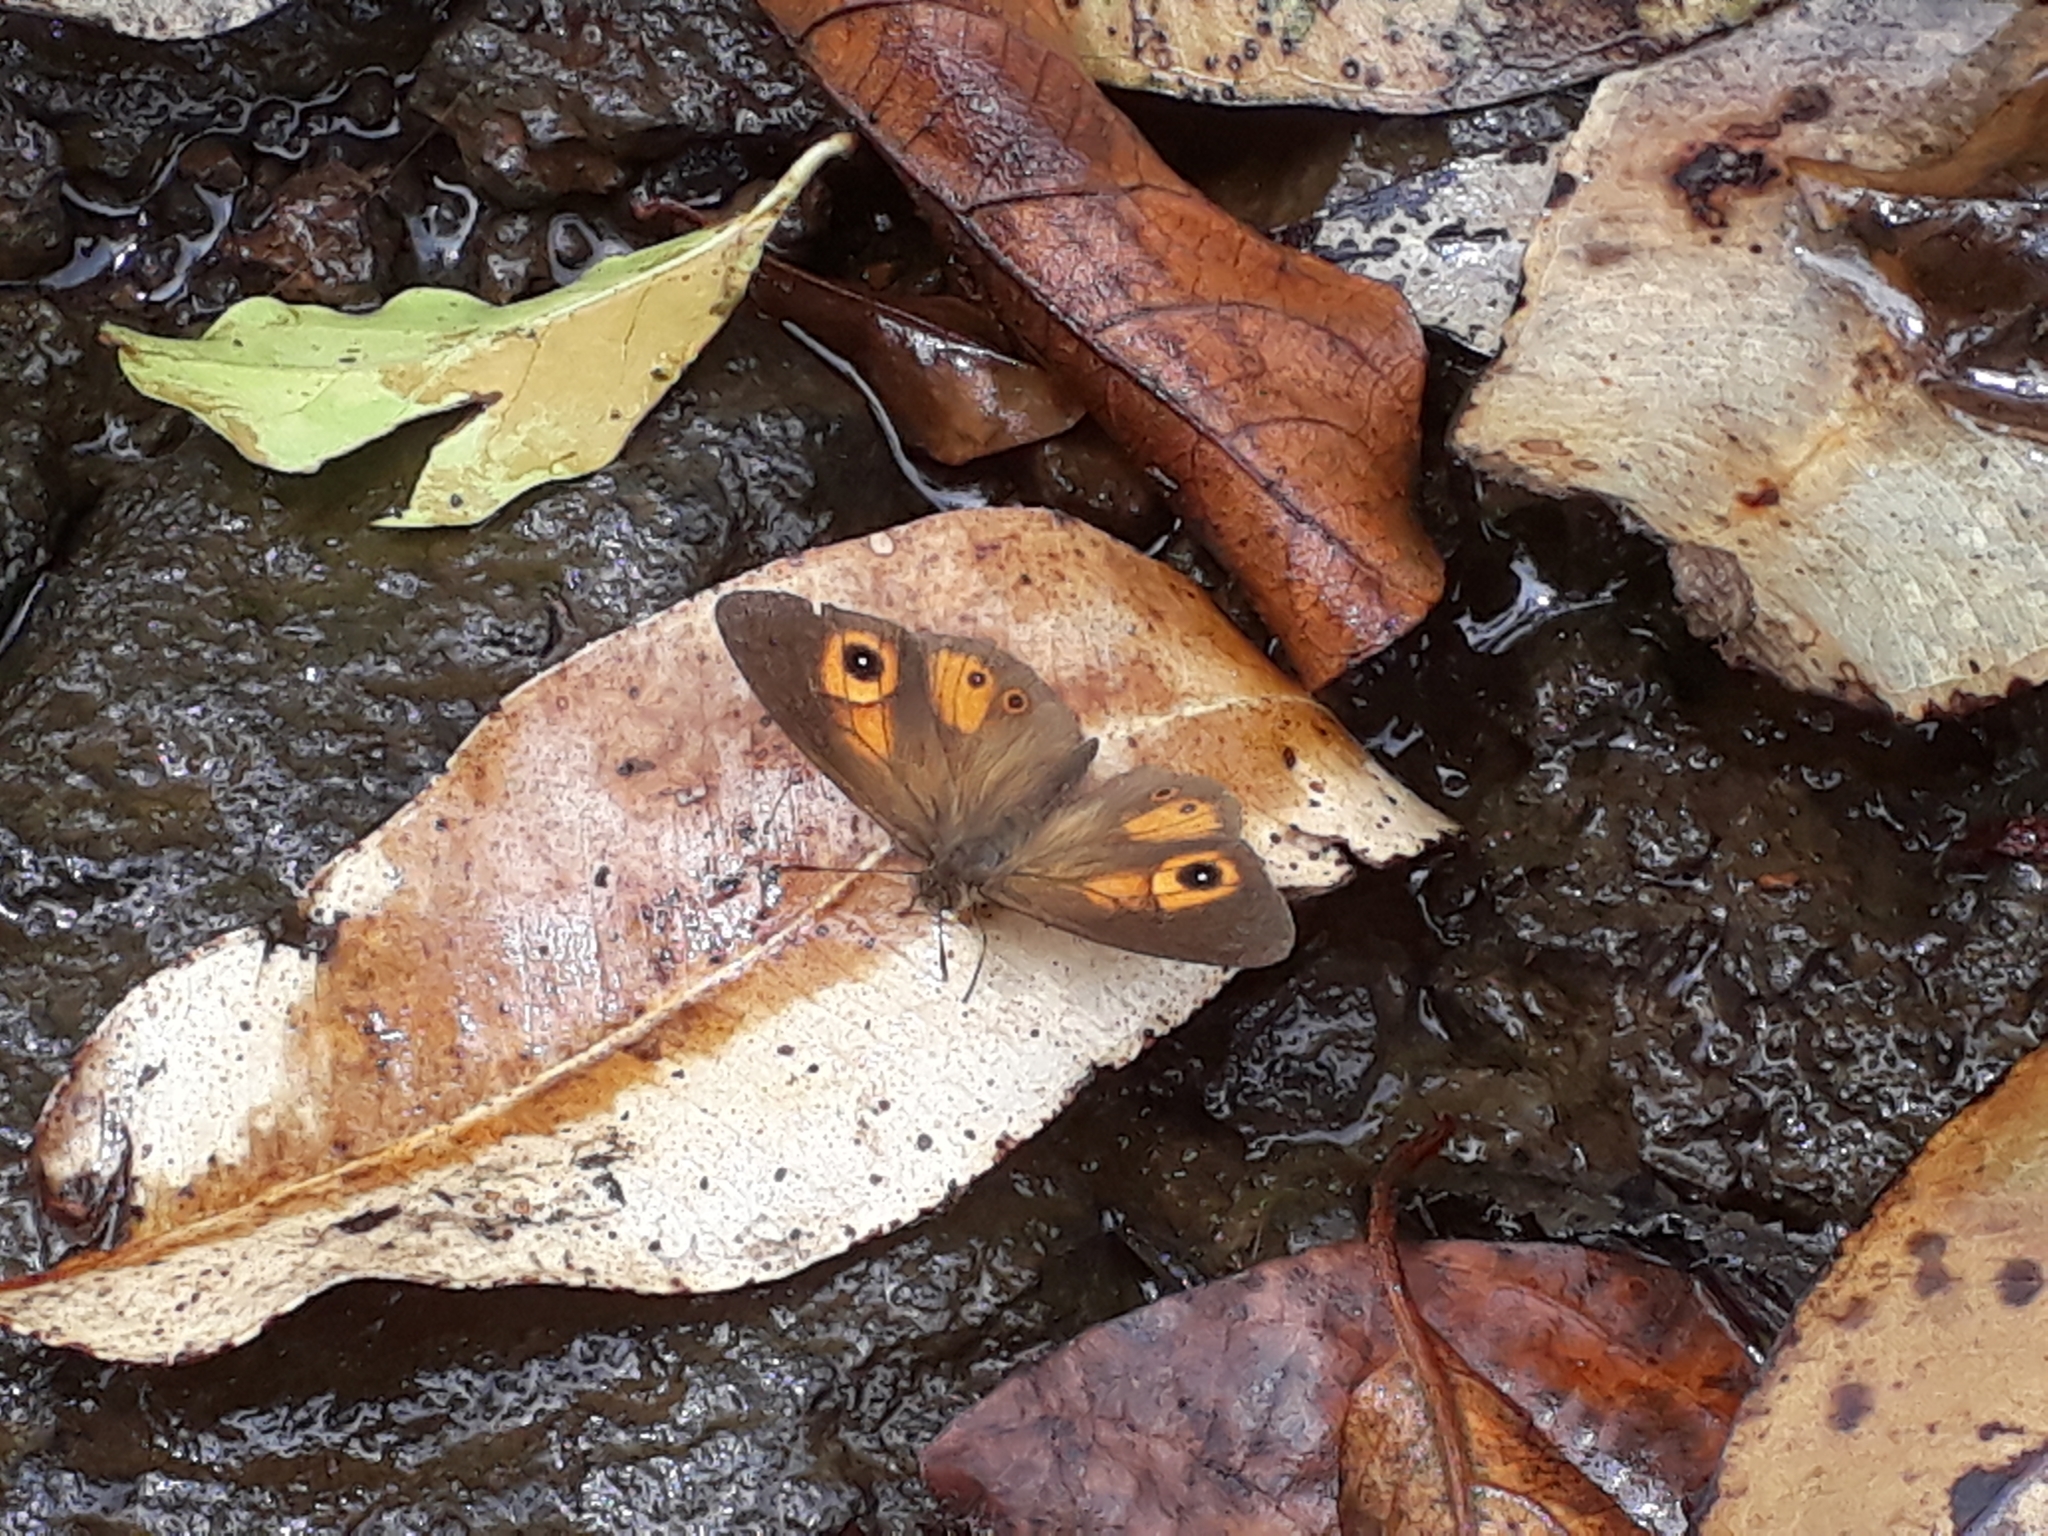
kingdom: Animalia
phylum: Arthropoda
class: Insecta
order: Lepidoptera
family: Nymphalidae
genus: Henotesia
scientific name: Henotesia narcissus
